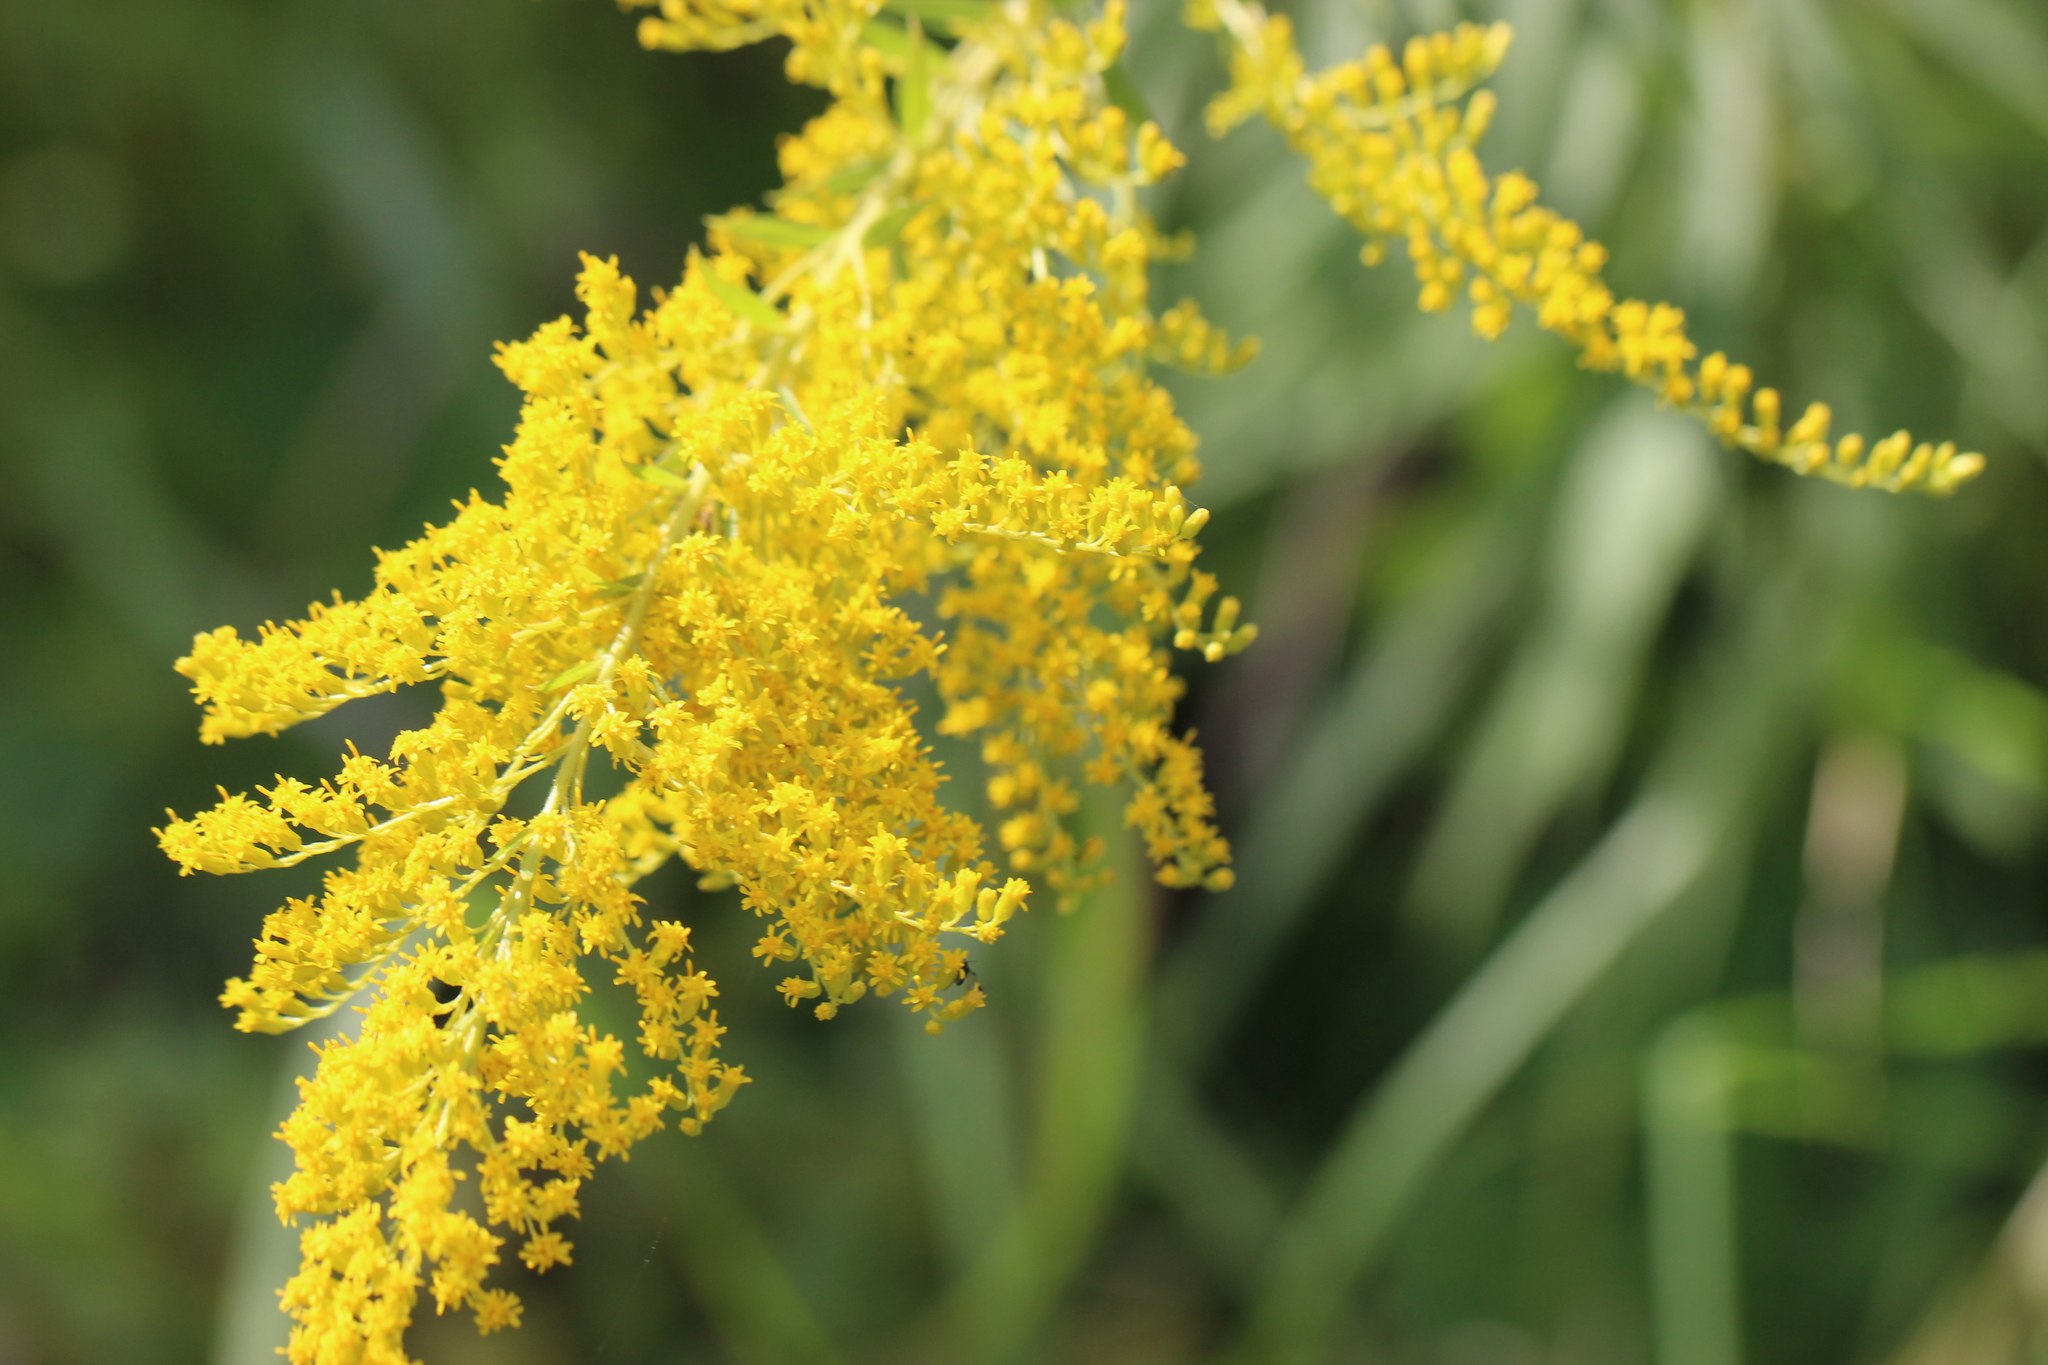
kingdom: Plantae
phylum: Tracheophyta
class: Magnoliopsida
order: Asterales
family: Asteraceae
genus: Solidago
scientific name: Solidago canadensis
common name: Canada goldenrod
